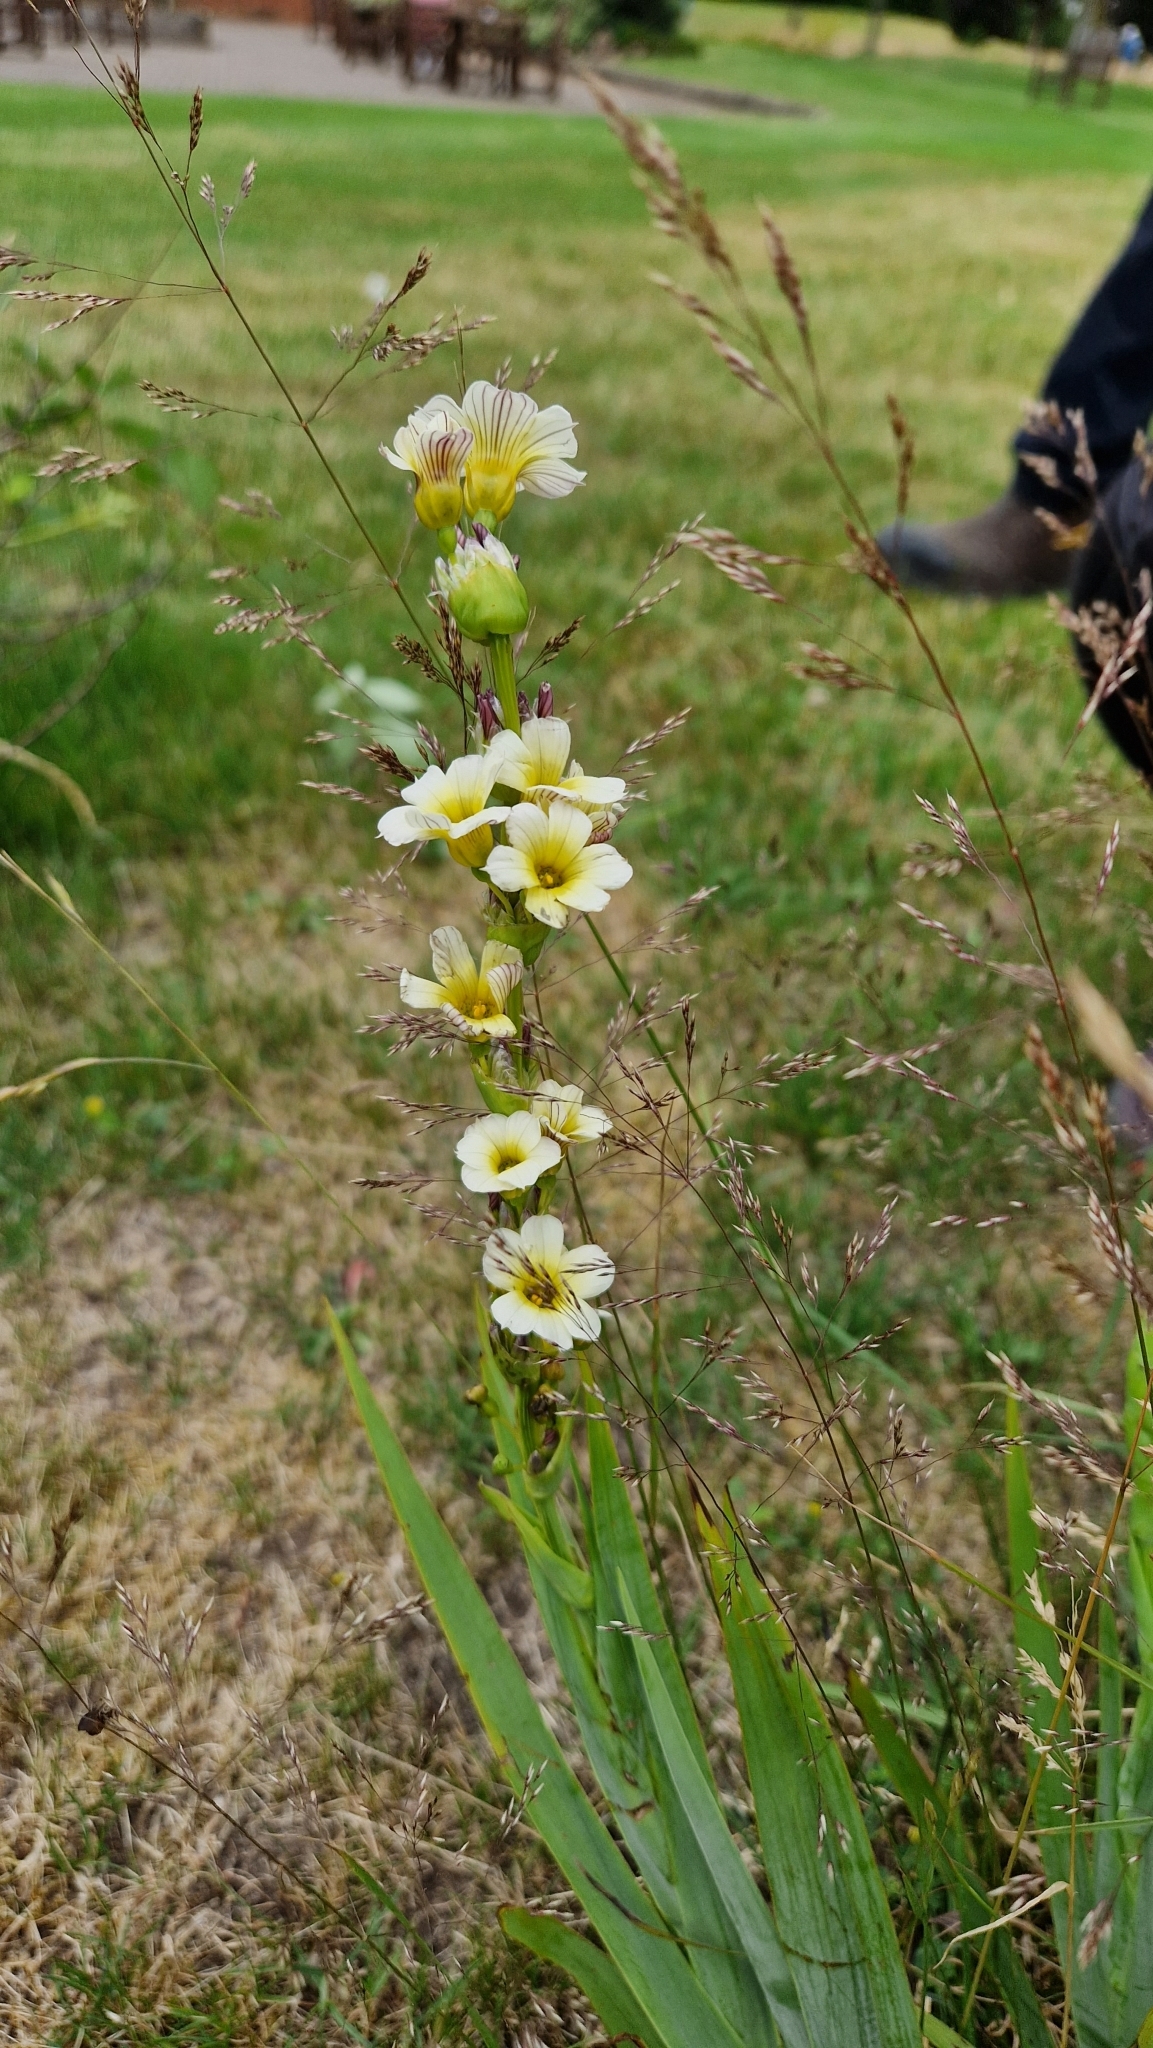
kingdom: Plantae
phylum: Tracheophyta
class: Liliopsida
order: Asparagales
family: Iridaceae
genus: Sisyrinchium
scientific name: Sisyrinchium striatum
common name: Pale yellow-eyed-grass
